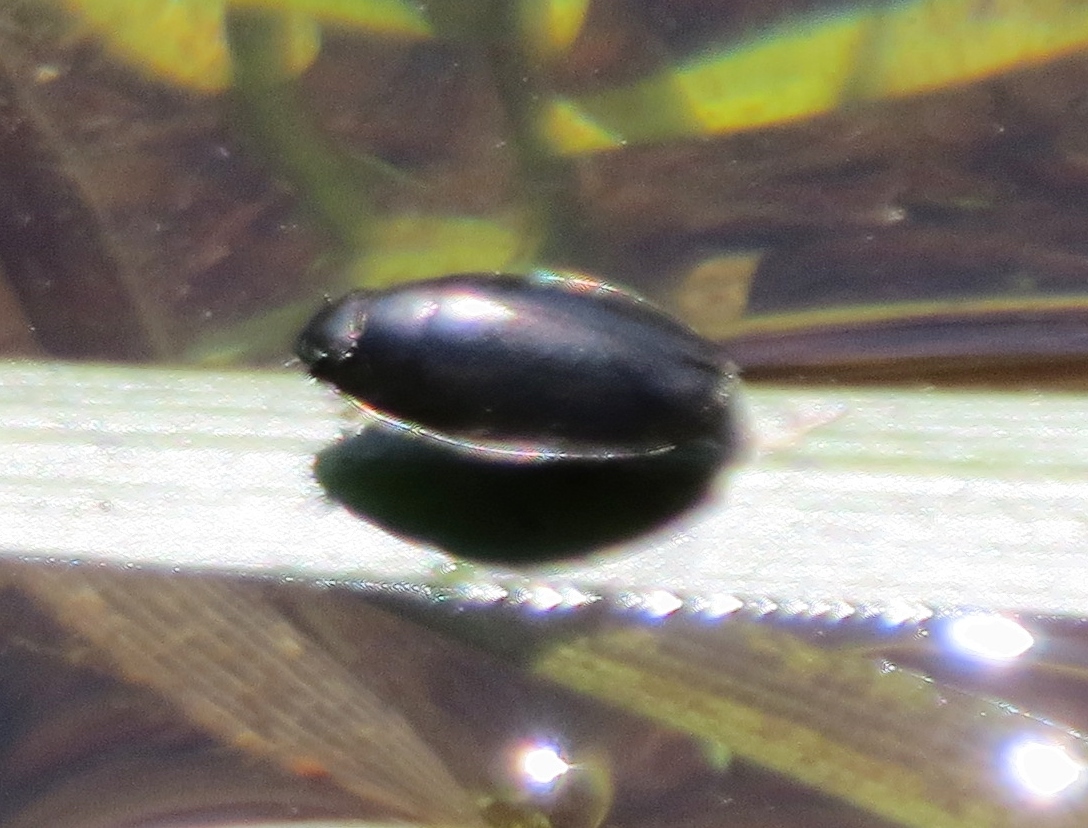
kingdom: Animalia
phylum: Arthropoda
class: Insecta
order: Coleoptera
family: Gyrinidae
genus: Dineutus
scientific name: Dineutus
